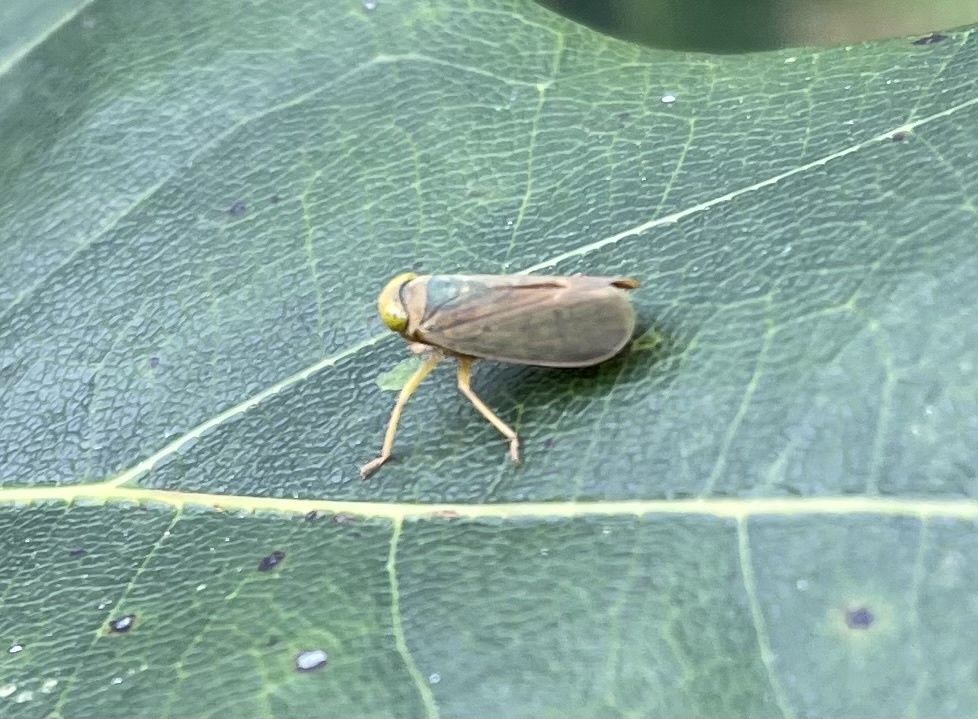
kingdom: Animalia
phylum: Arthropoda
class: Insecta
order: Hemiptera
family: Cicadellidae
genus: Jikradia
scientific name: Jikradia olitoria
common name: Coppery leafhopper
